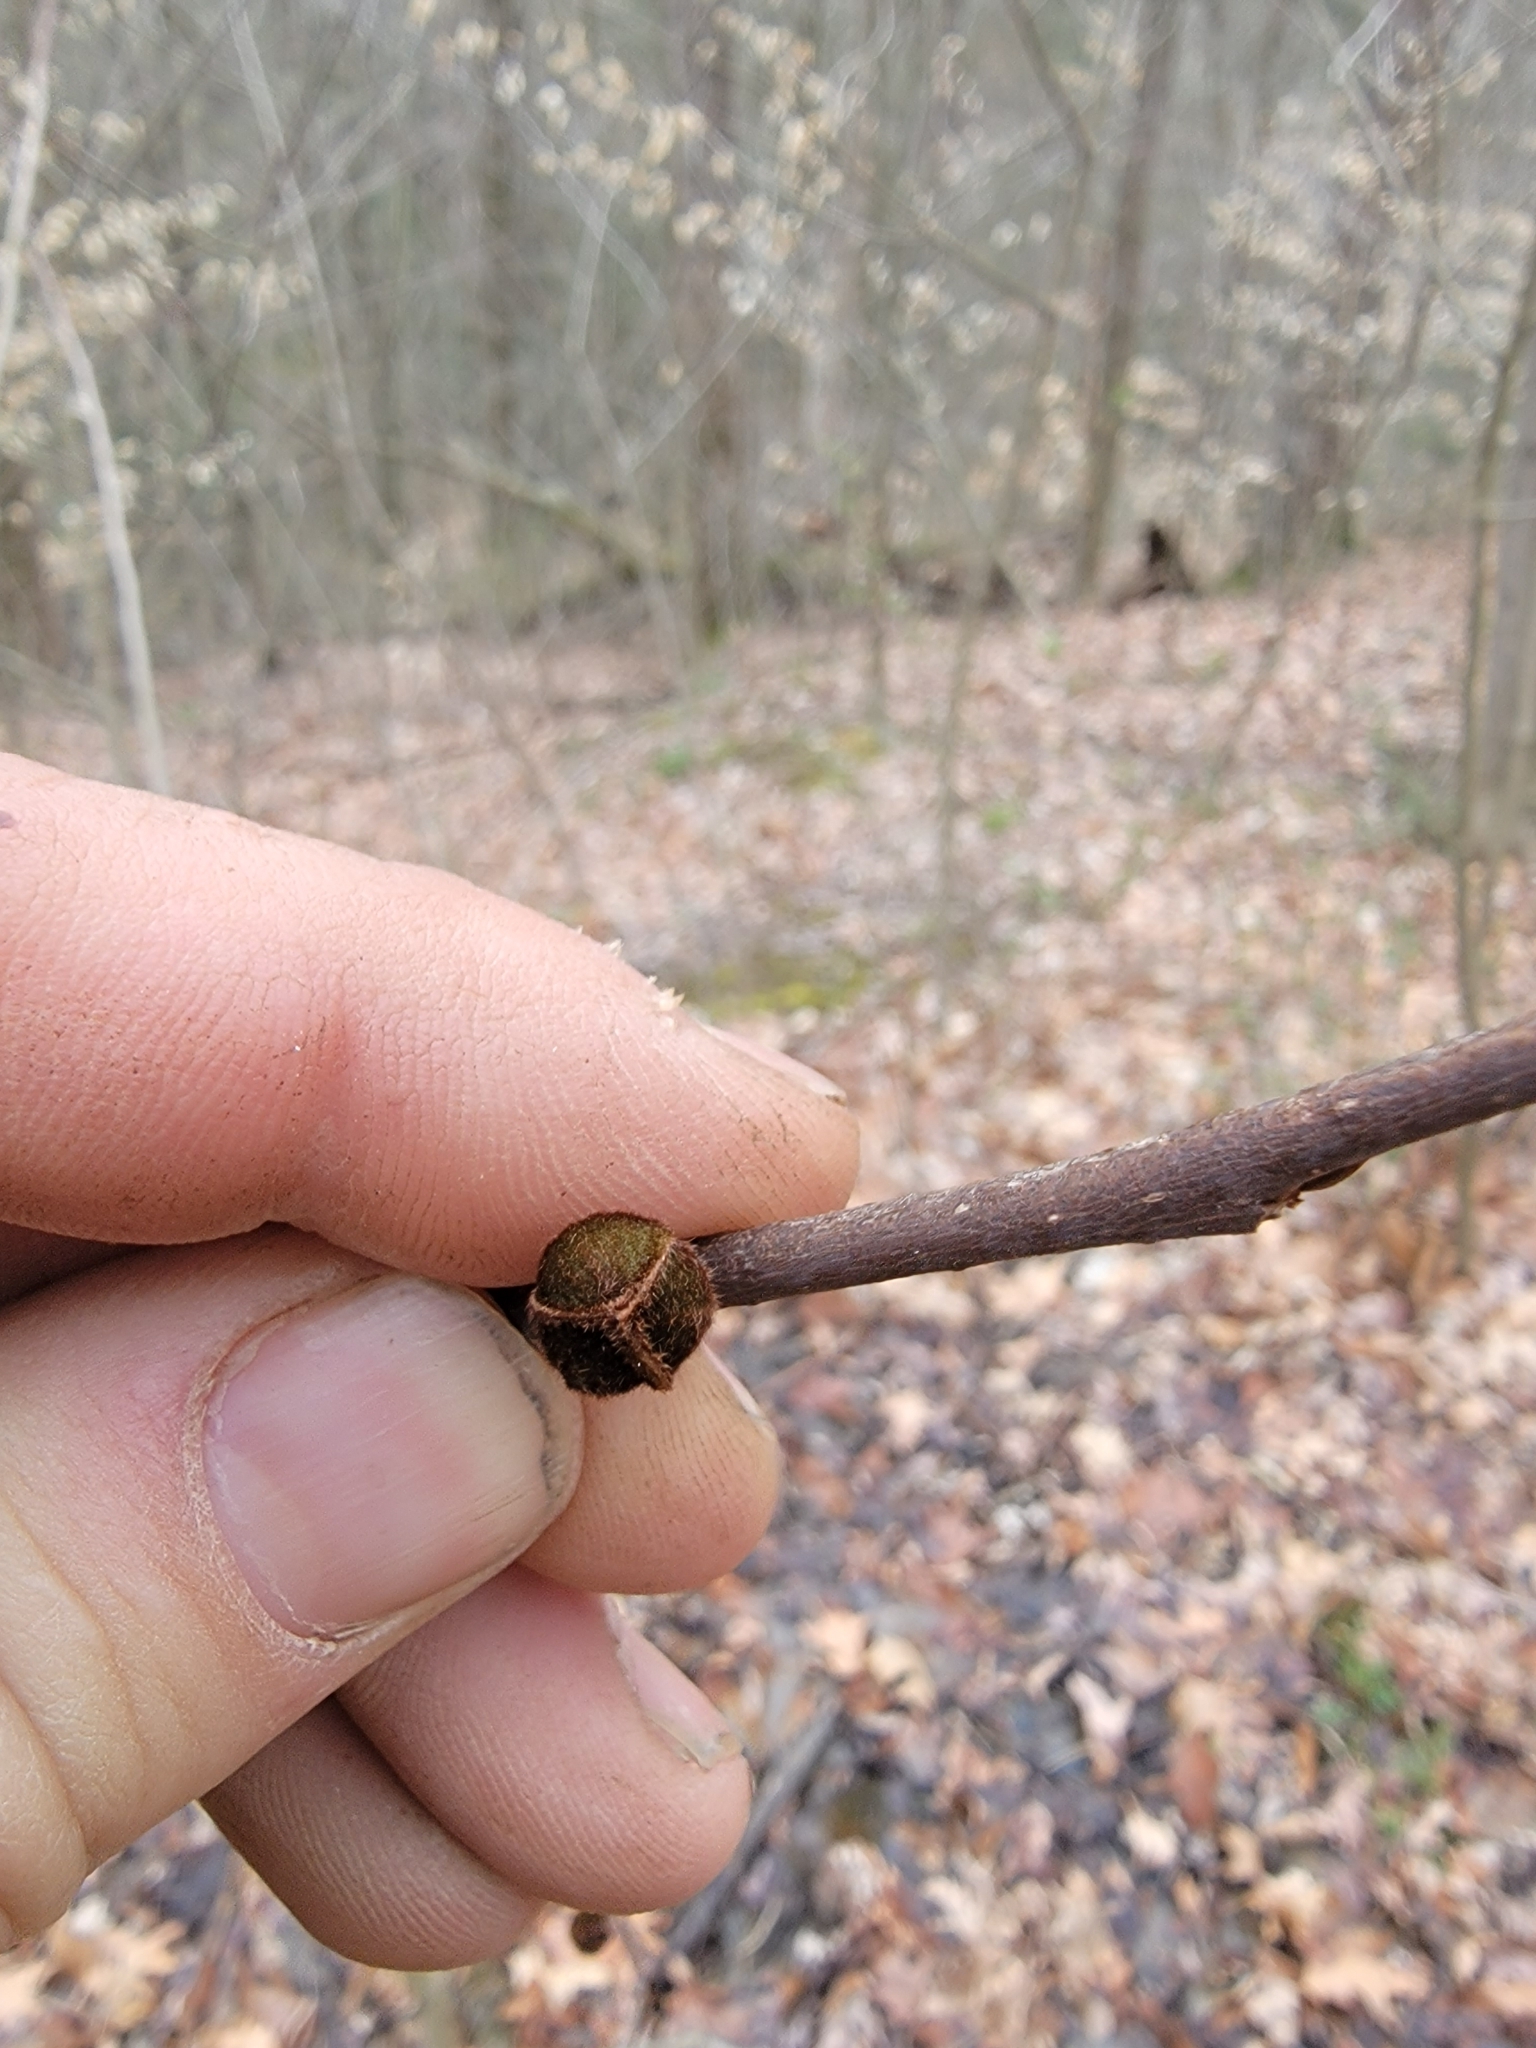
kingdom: Plantae
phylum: Tracheophyta
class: Magnoliopsida
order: Magnoliales
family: Annonaceae
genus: Asimina
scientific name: Asimina triloba
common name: Dog-banana
